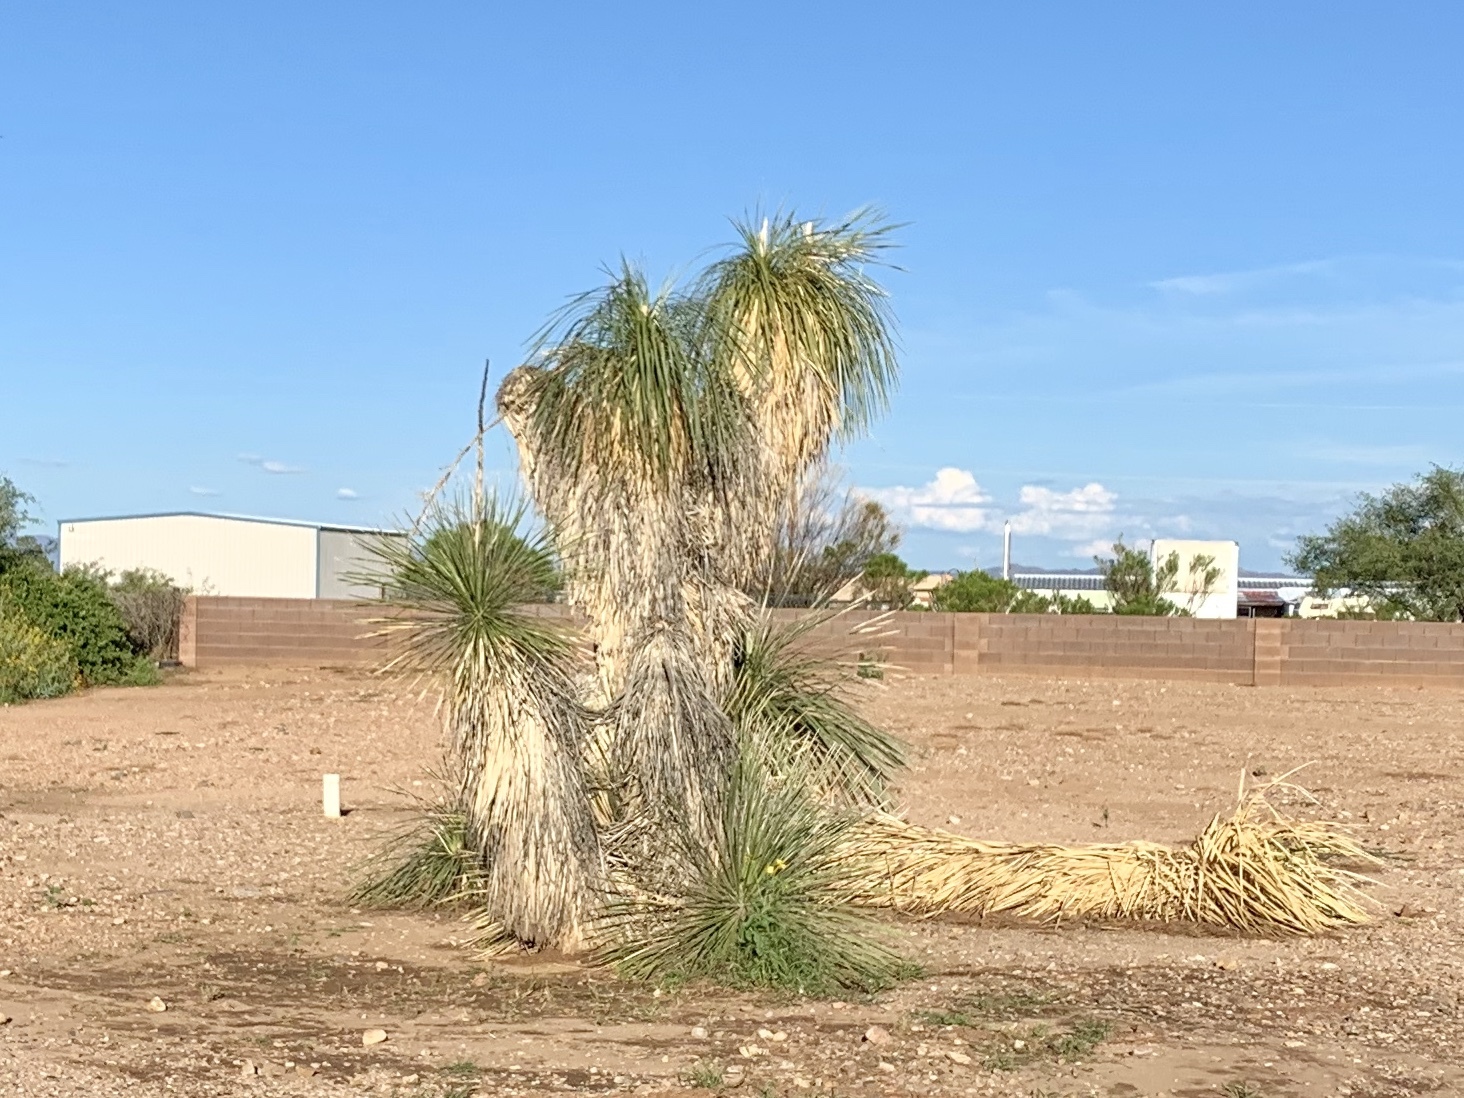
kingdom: Plantae
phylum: Tracheophyta
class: Liliopsida
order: Asparagales
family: Asparagaceae
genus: Yucca
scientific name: Yucca elata
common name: Palmella
